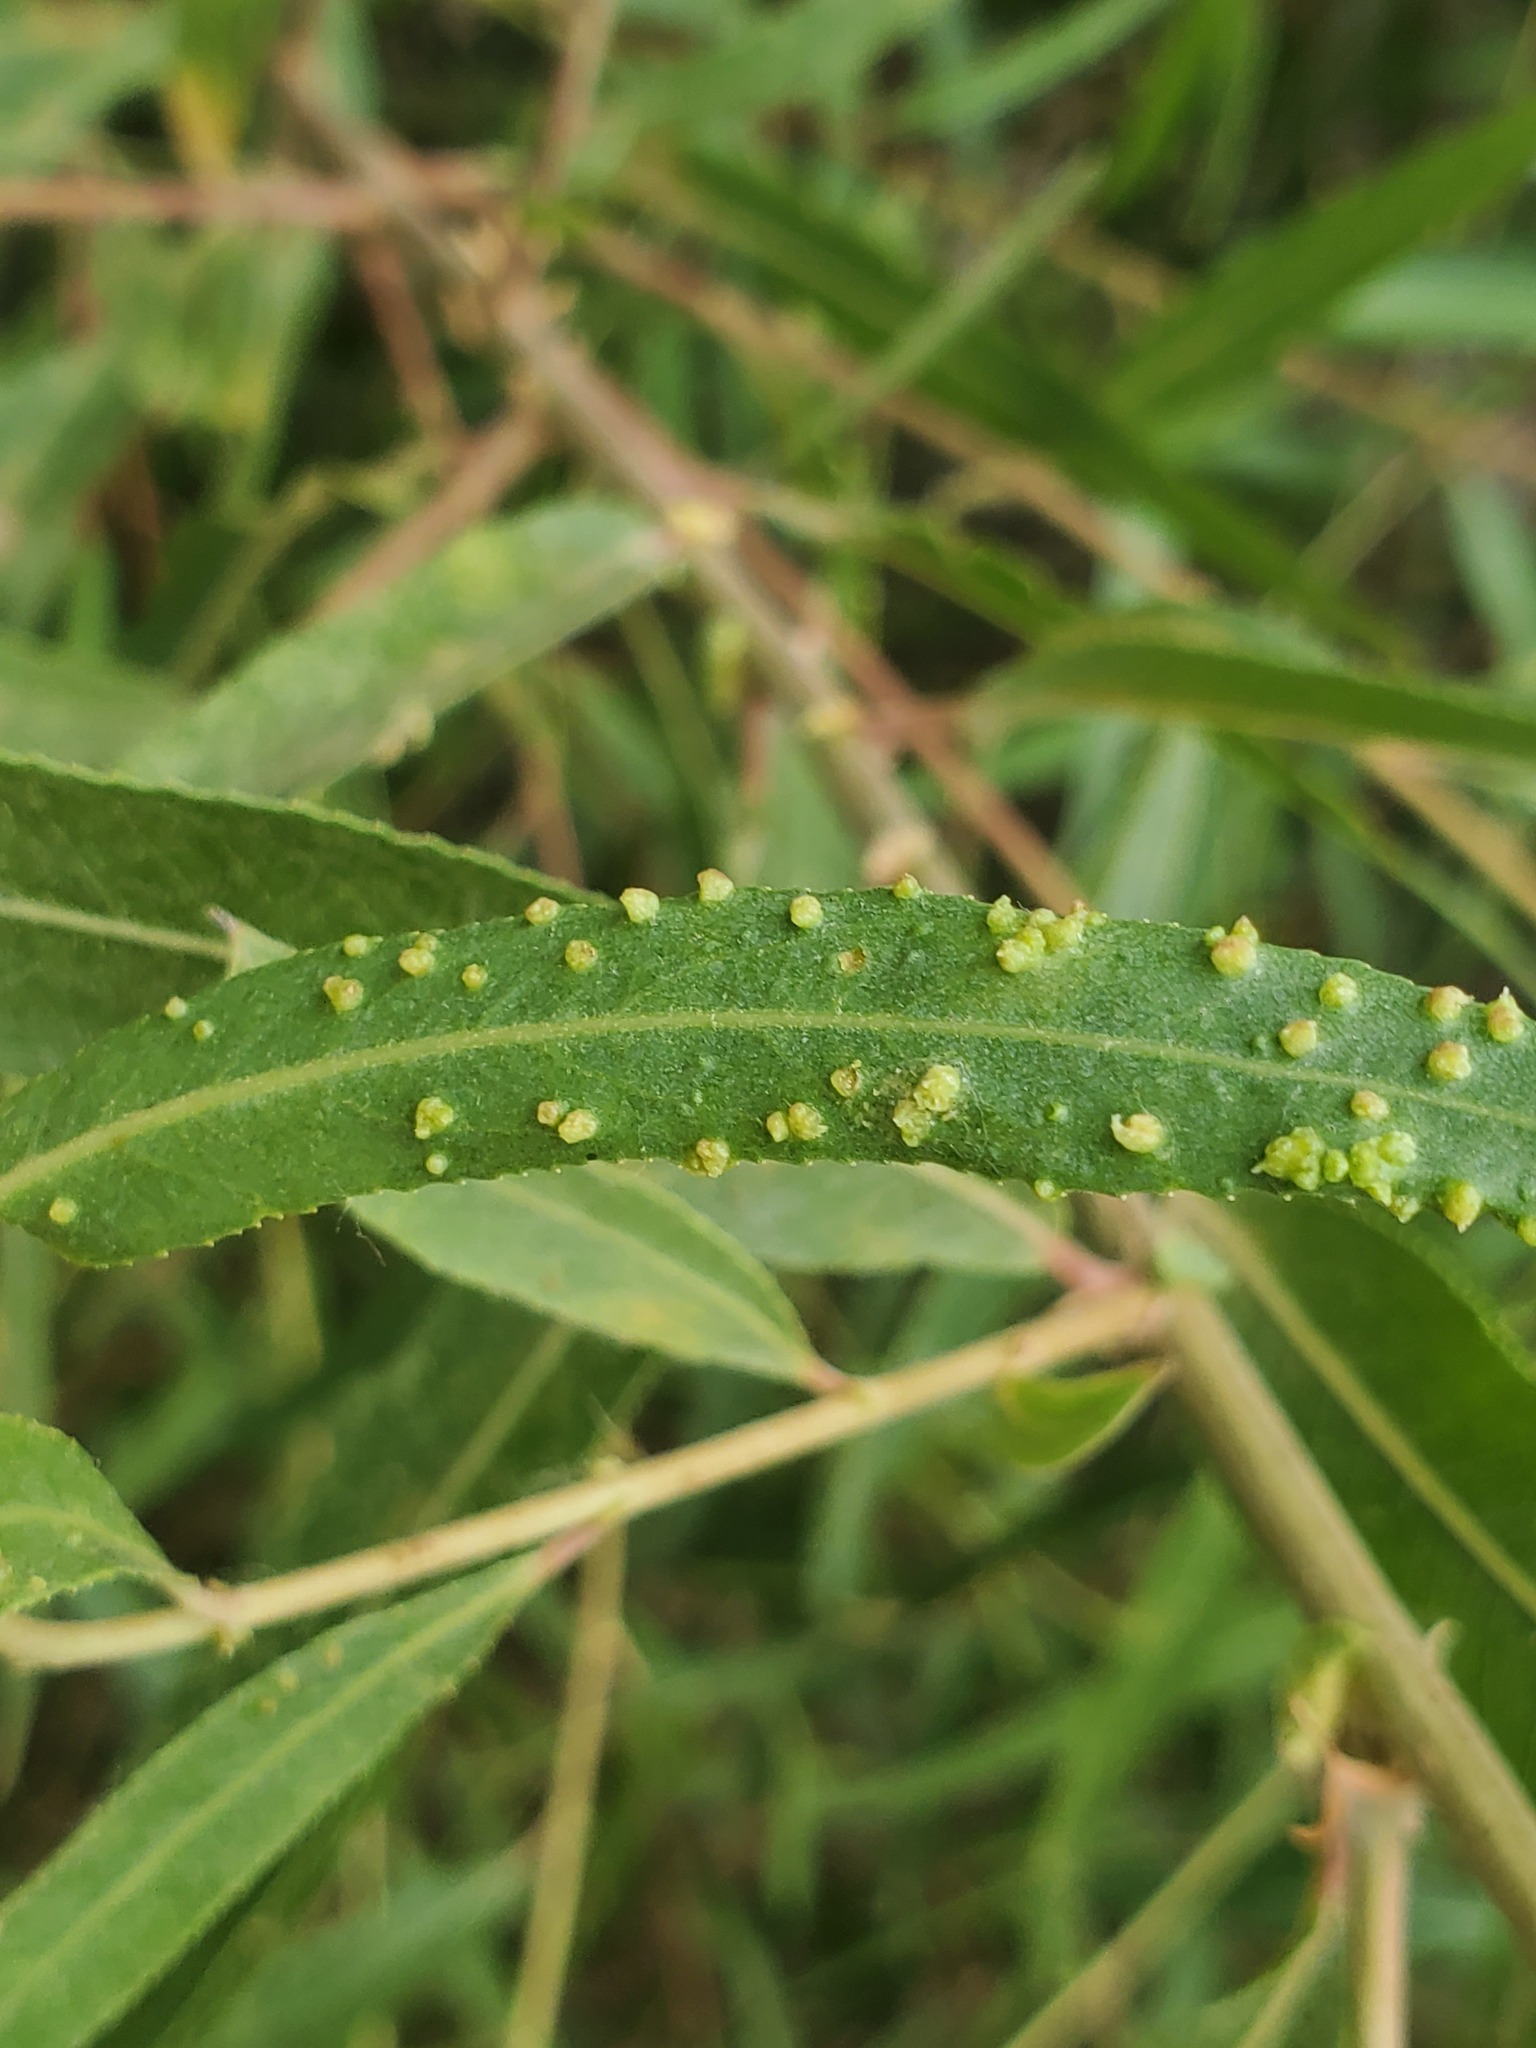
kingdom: Animalia
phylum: Arthropoda
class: Arachnida
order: Trombidiformes
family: Eriophyidae
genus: Aculus
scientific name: Aculus tetanothrix
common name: Willow bead gall mite
